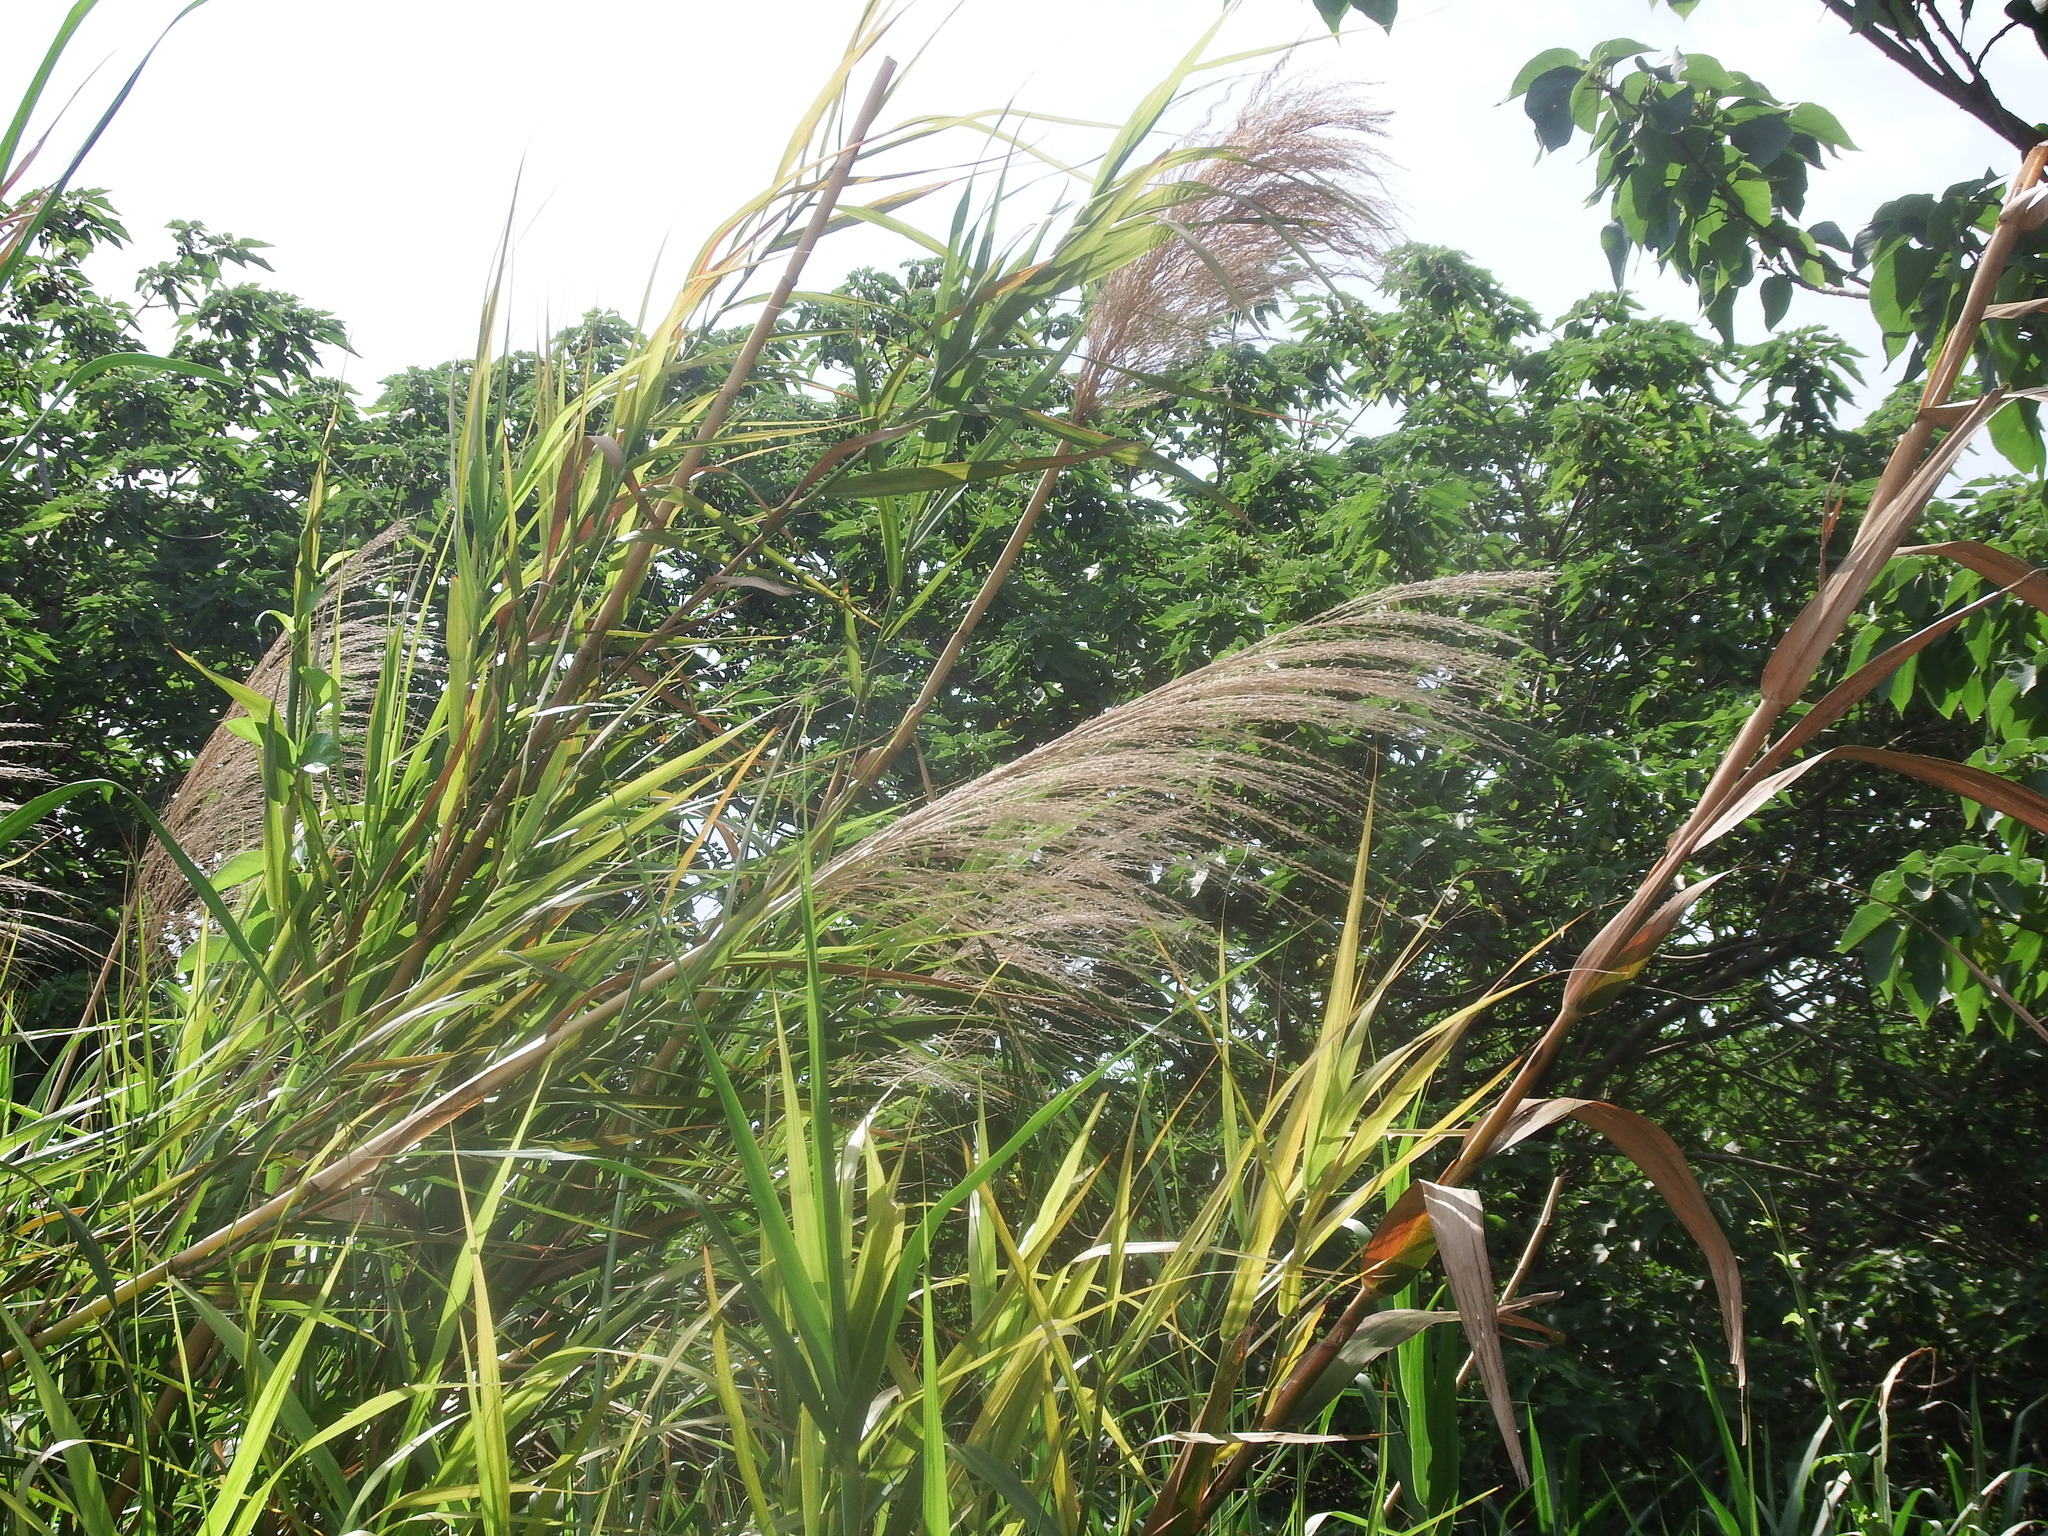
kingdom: Plantae
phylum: Tracheophyta
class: Liliopsida
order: Poales
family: Poaceae
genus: Phragmites
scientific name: Phragmites karka
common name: Tropical reed
